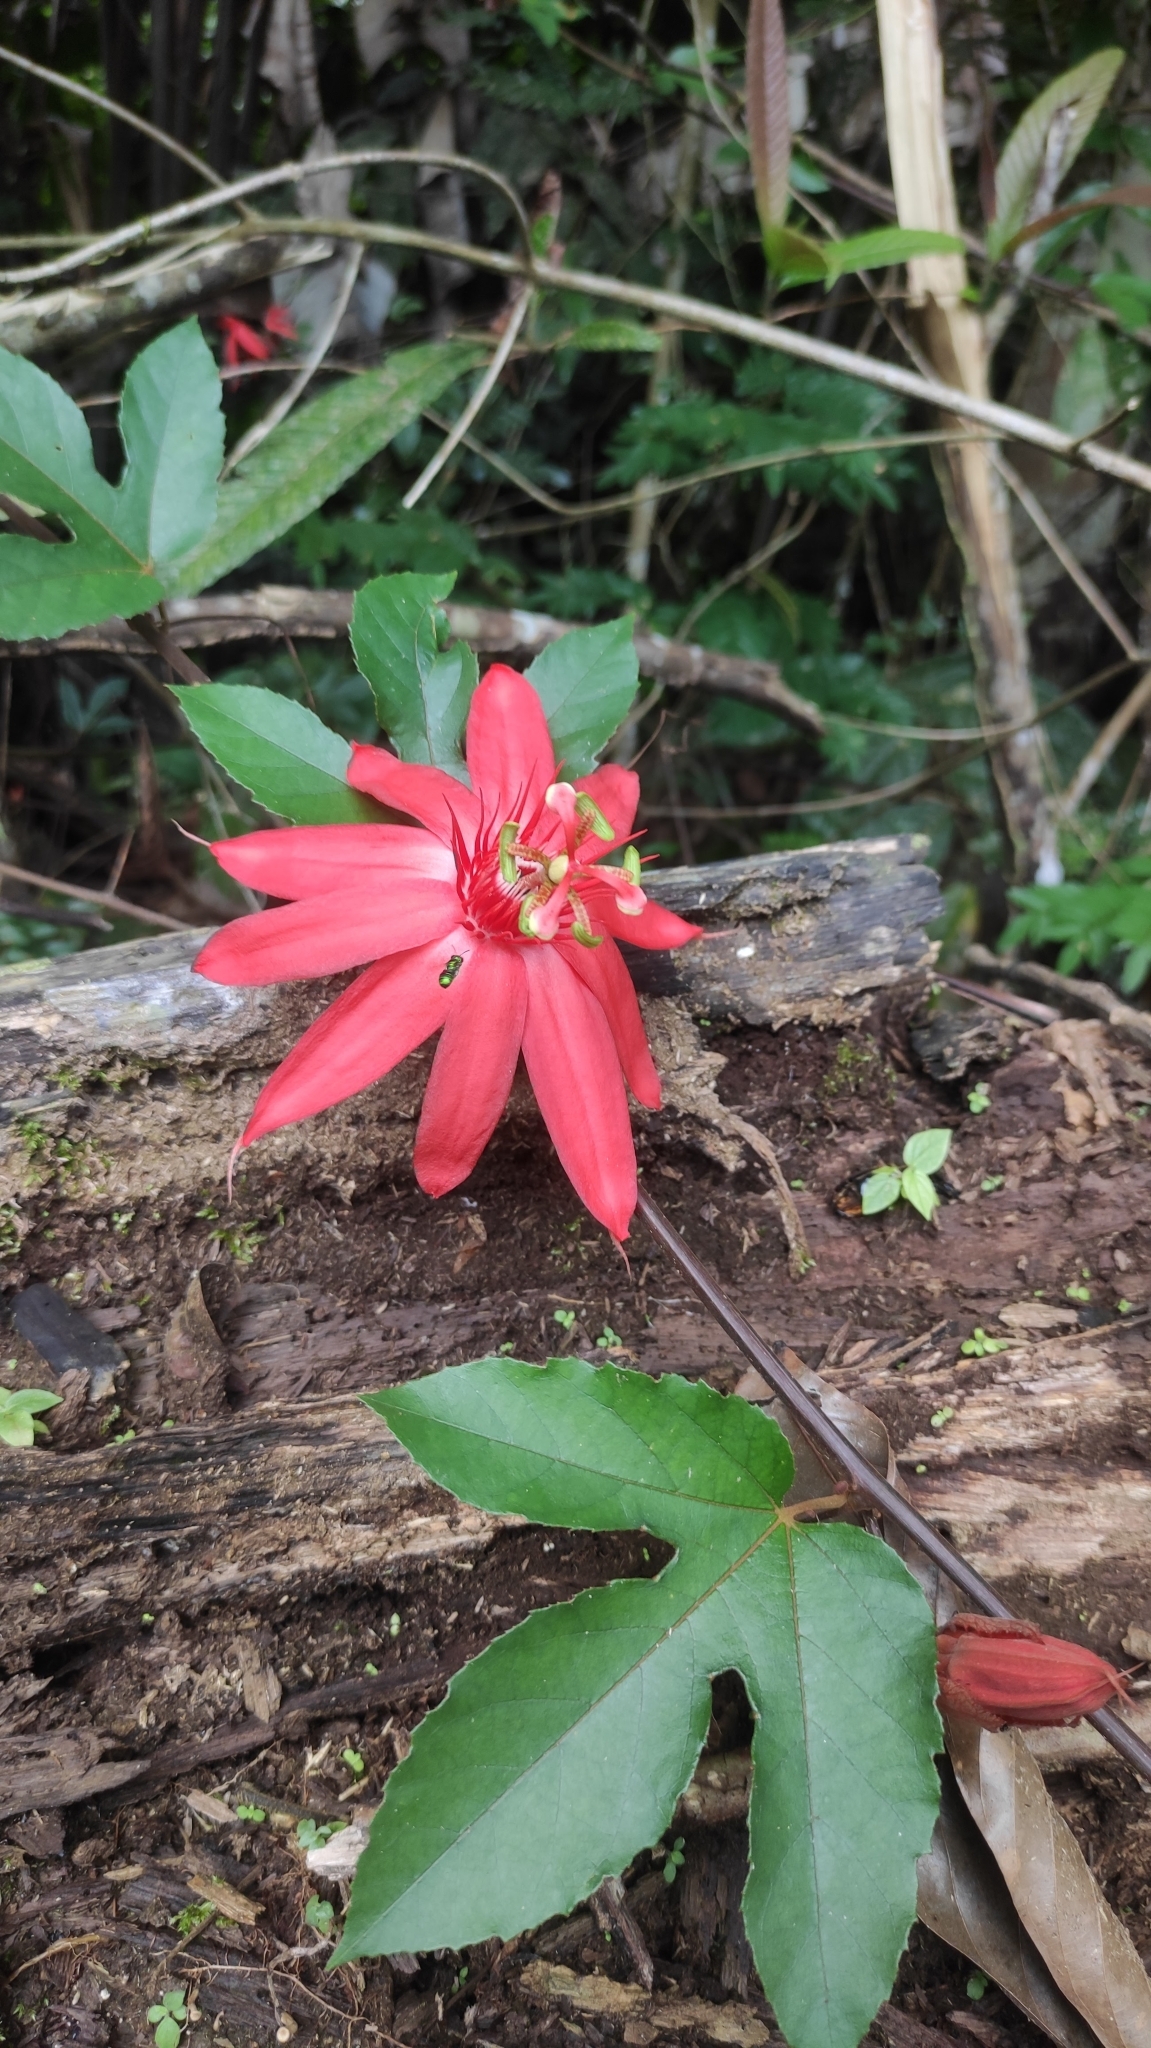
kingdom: Plantae
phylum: Tracheophyta
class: Magnoliopsida
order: Malpighiales
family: Passifloraceae
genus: Passiflora
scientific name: Passiflora vitifolia
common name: Perfumed passionflower
